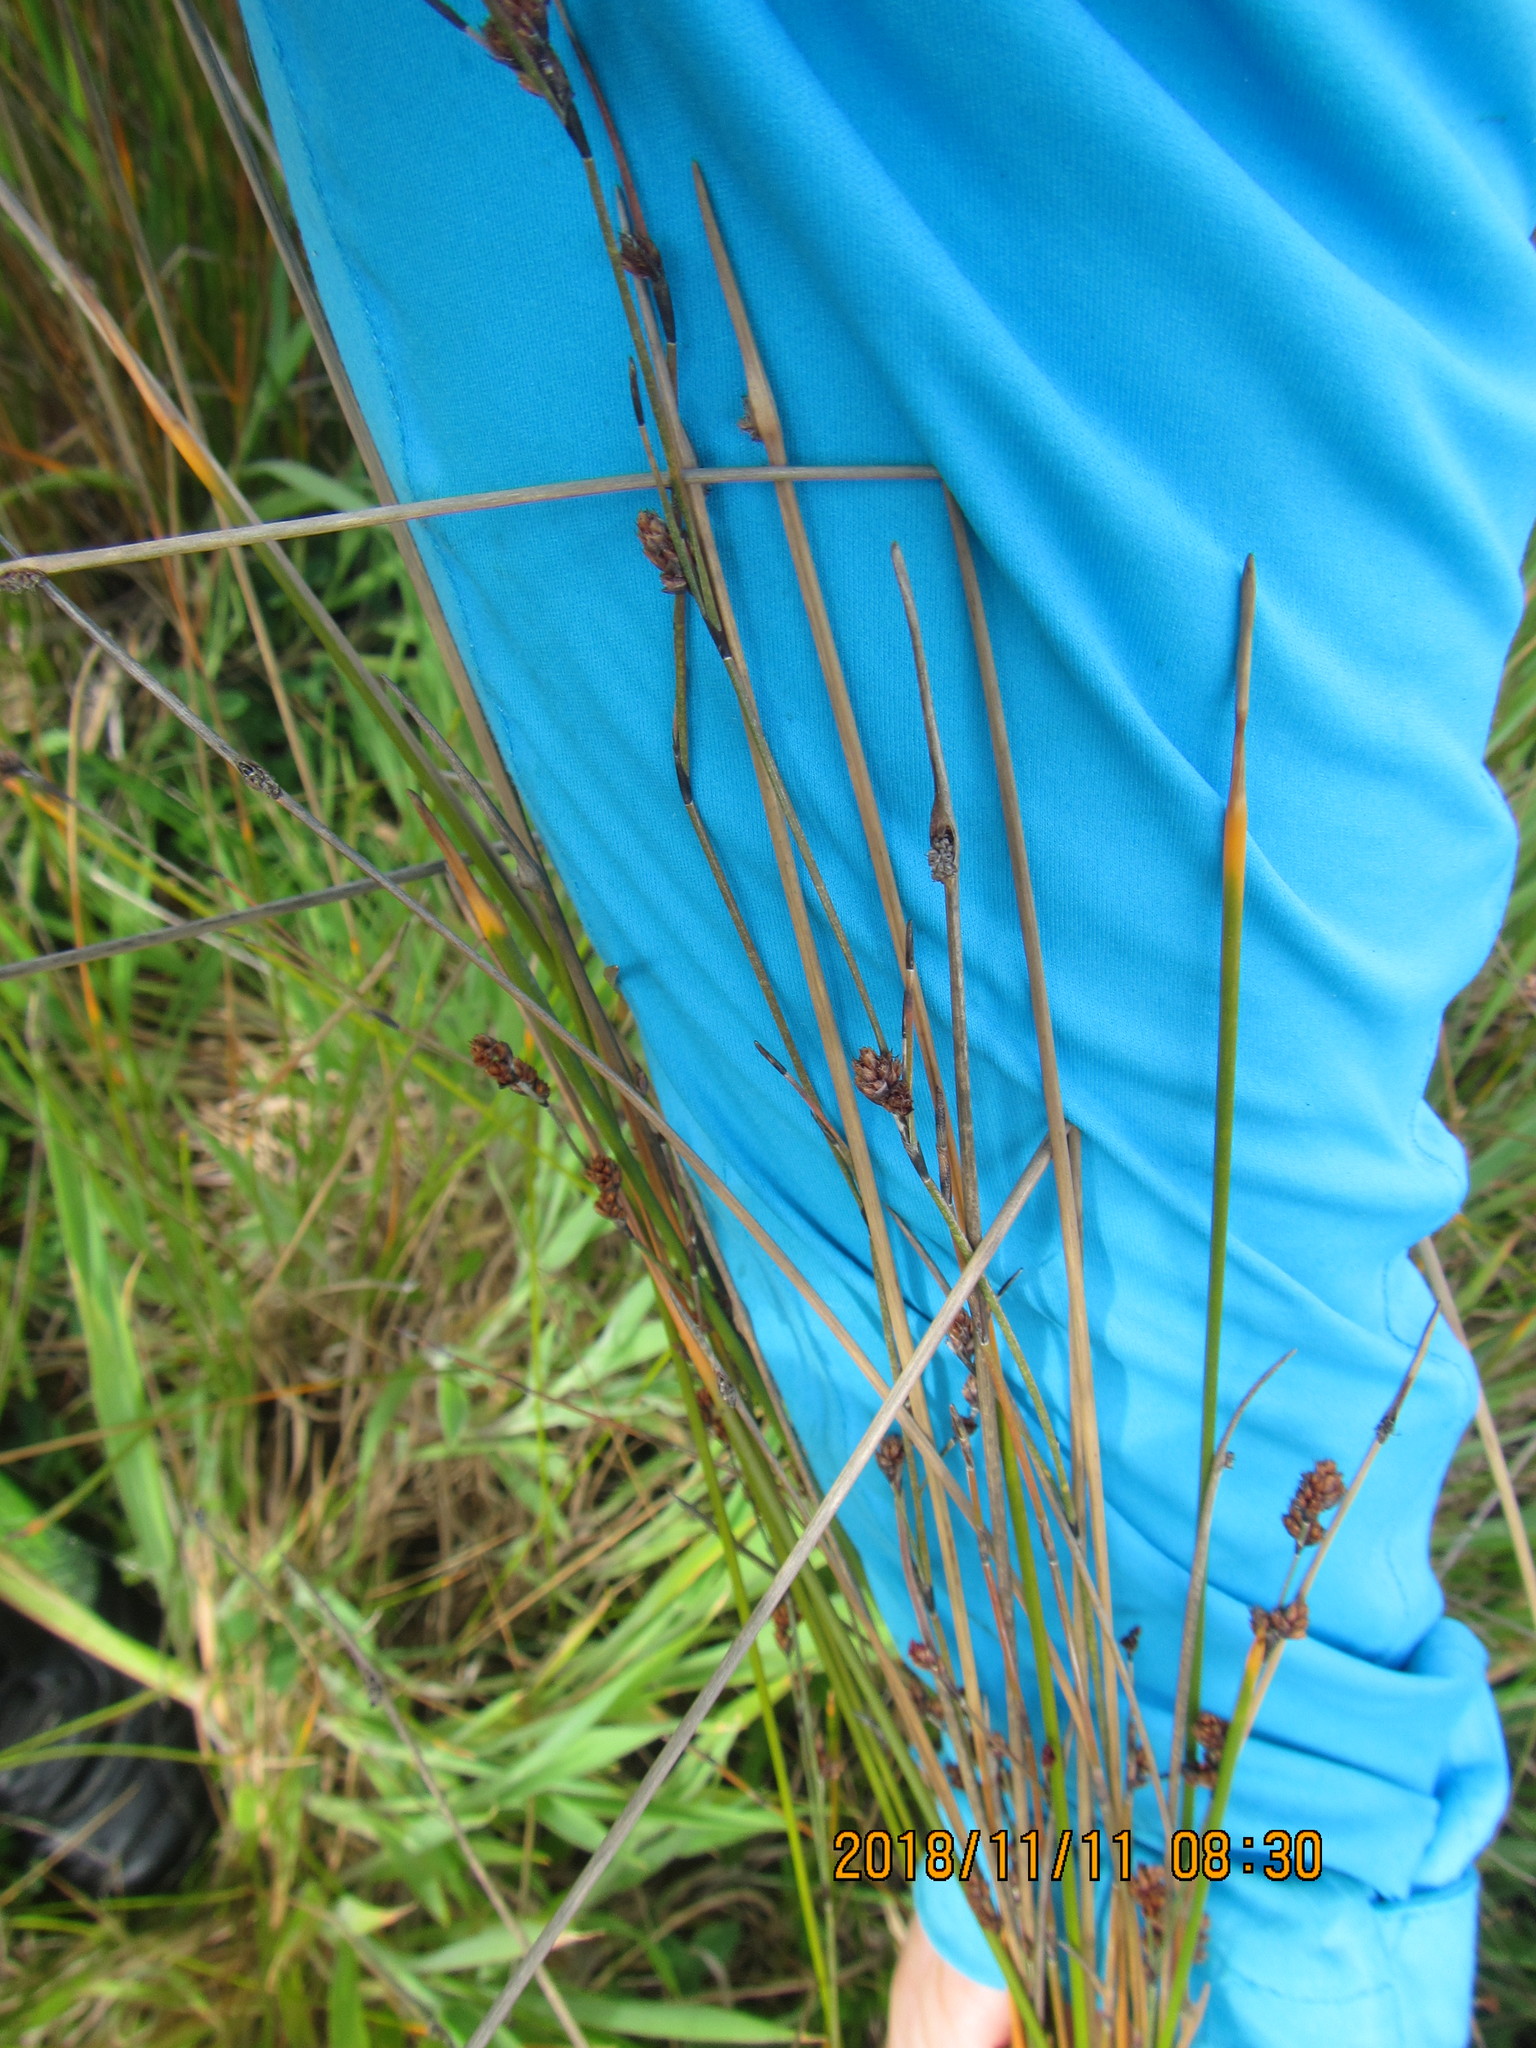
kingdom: Plantae
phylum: Tracheophyta
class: Liliopsida
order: Poales
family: Restionaceae
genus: Apodasmia
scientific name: Apodasmia similis
